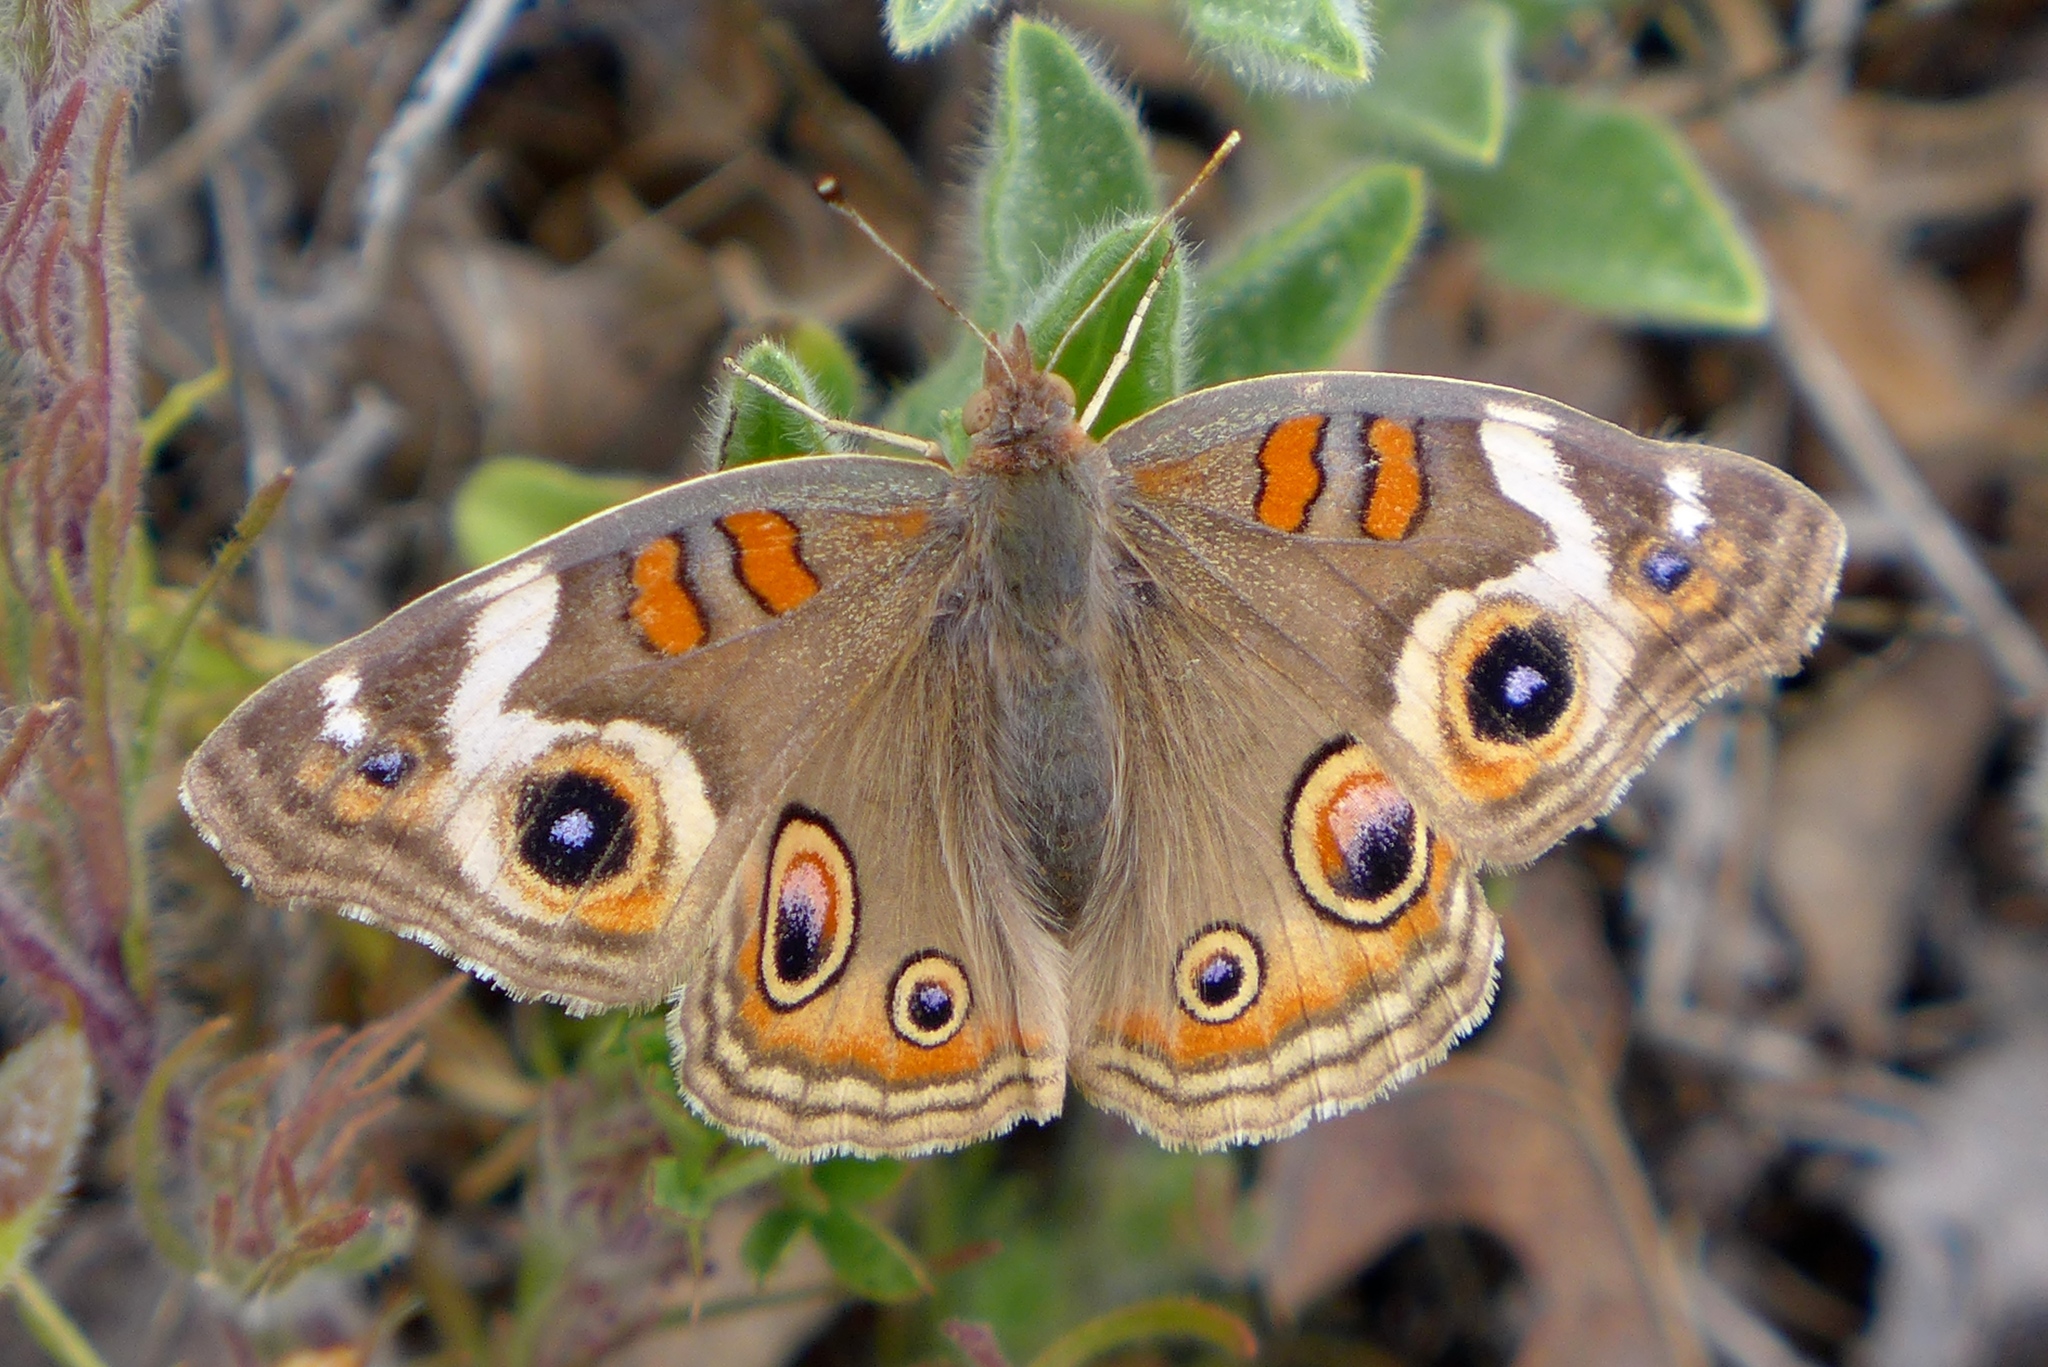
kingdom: Animalia
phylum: Arthropoda
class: Insecta
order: Lepidoptera
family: Nymphalidae
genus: Junonia
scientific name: Junonia grisea
